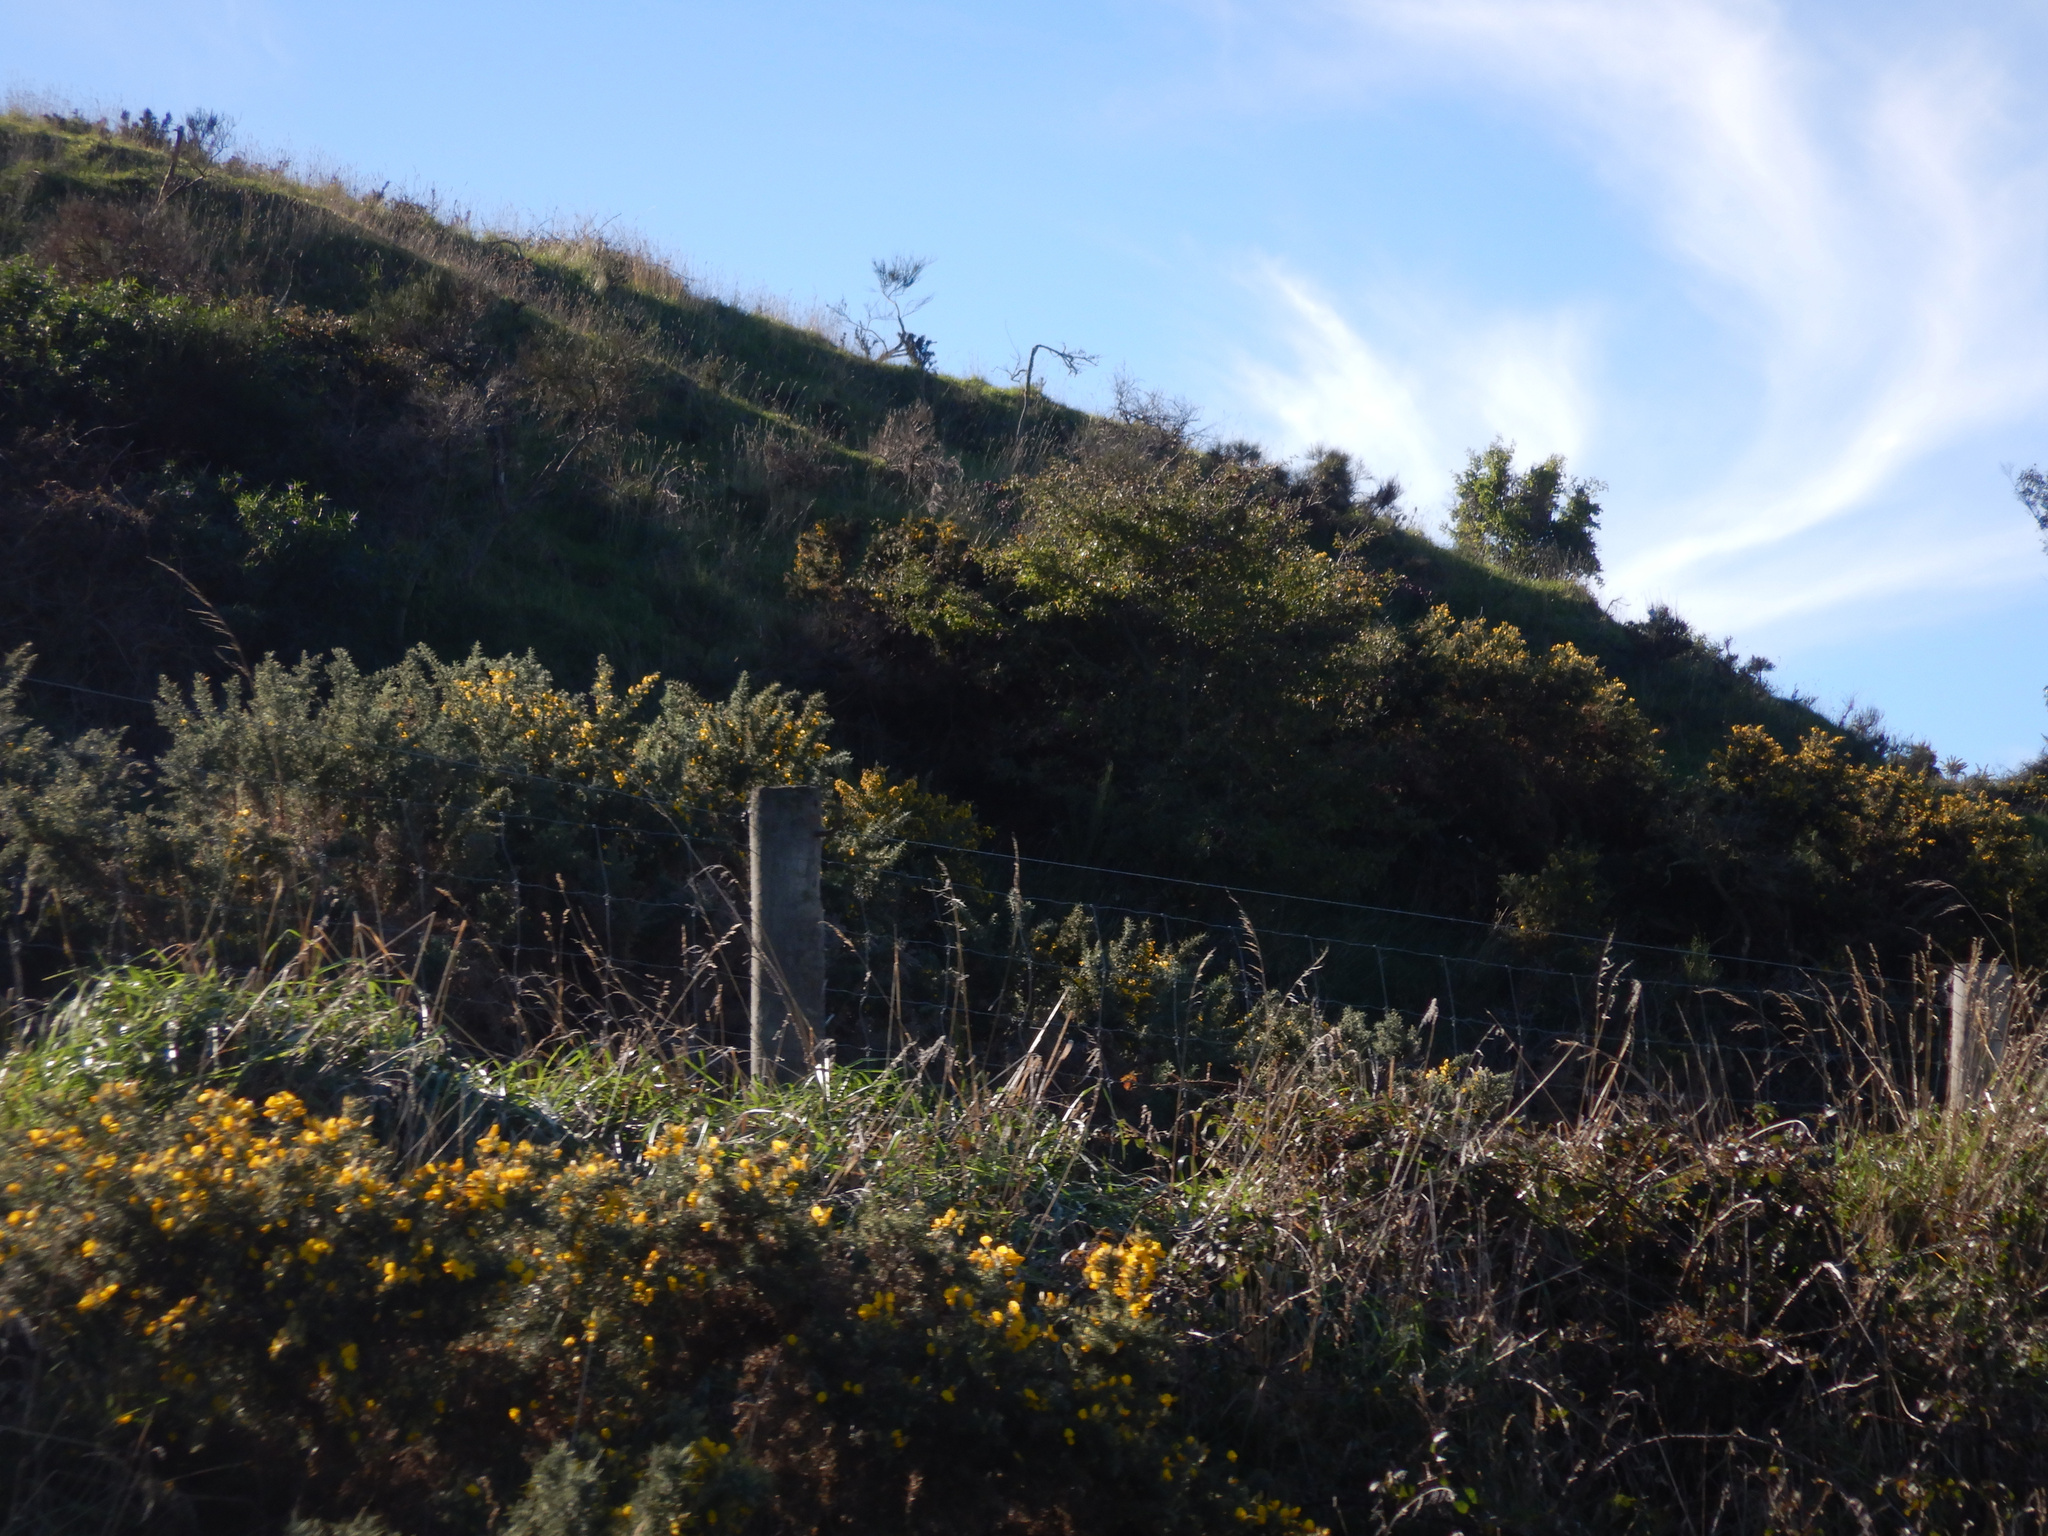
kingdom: Plantae
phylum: Tracheophyta
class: Magnoliopsida
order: Rosales
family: Rosaceae
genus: Crataegus
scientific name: Crataegus monogyna
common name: Hawthorn
